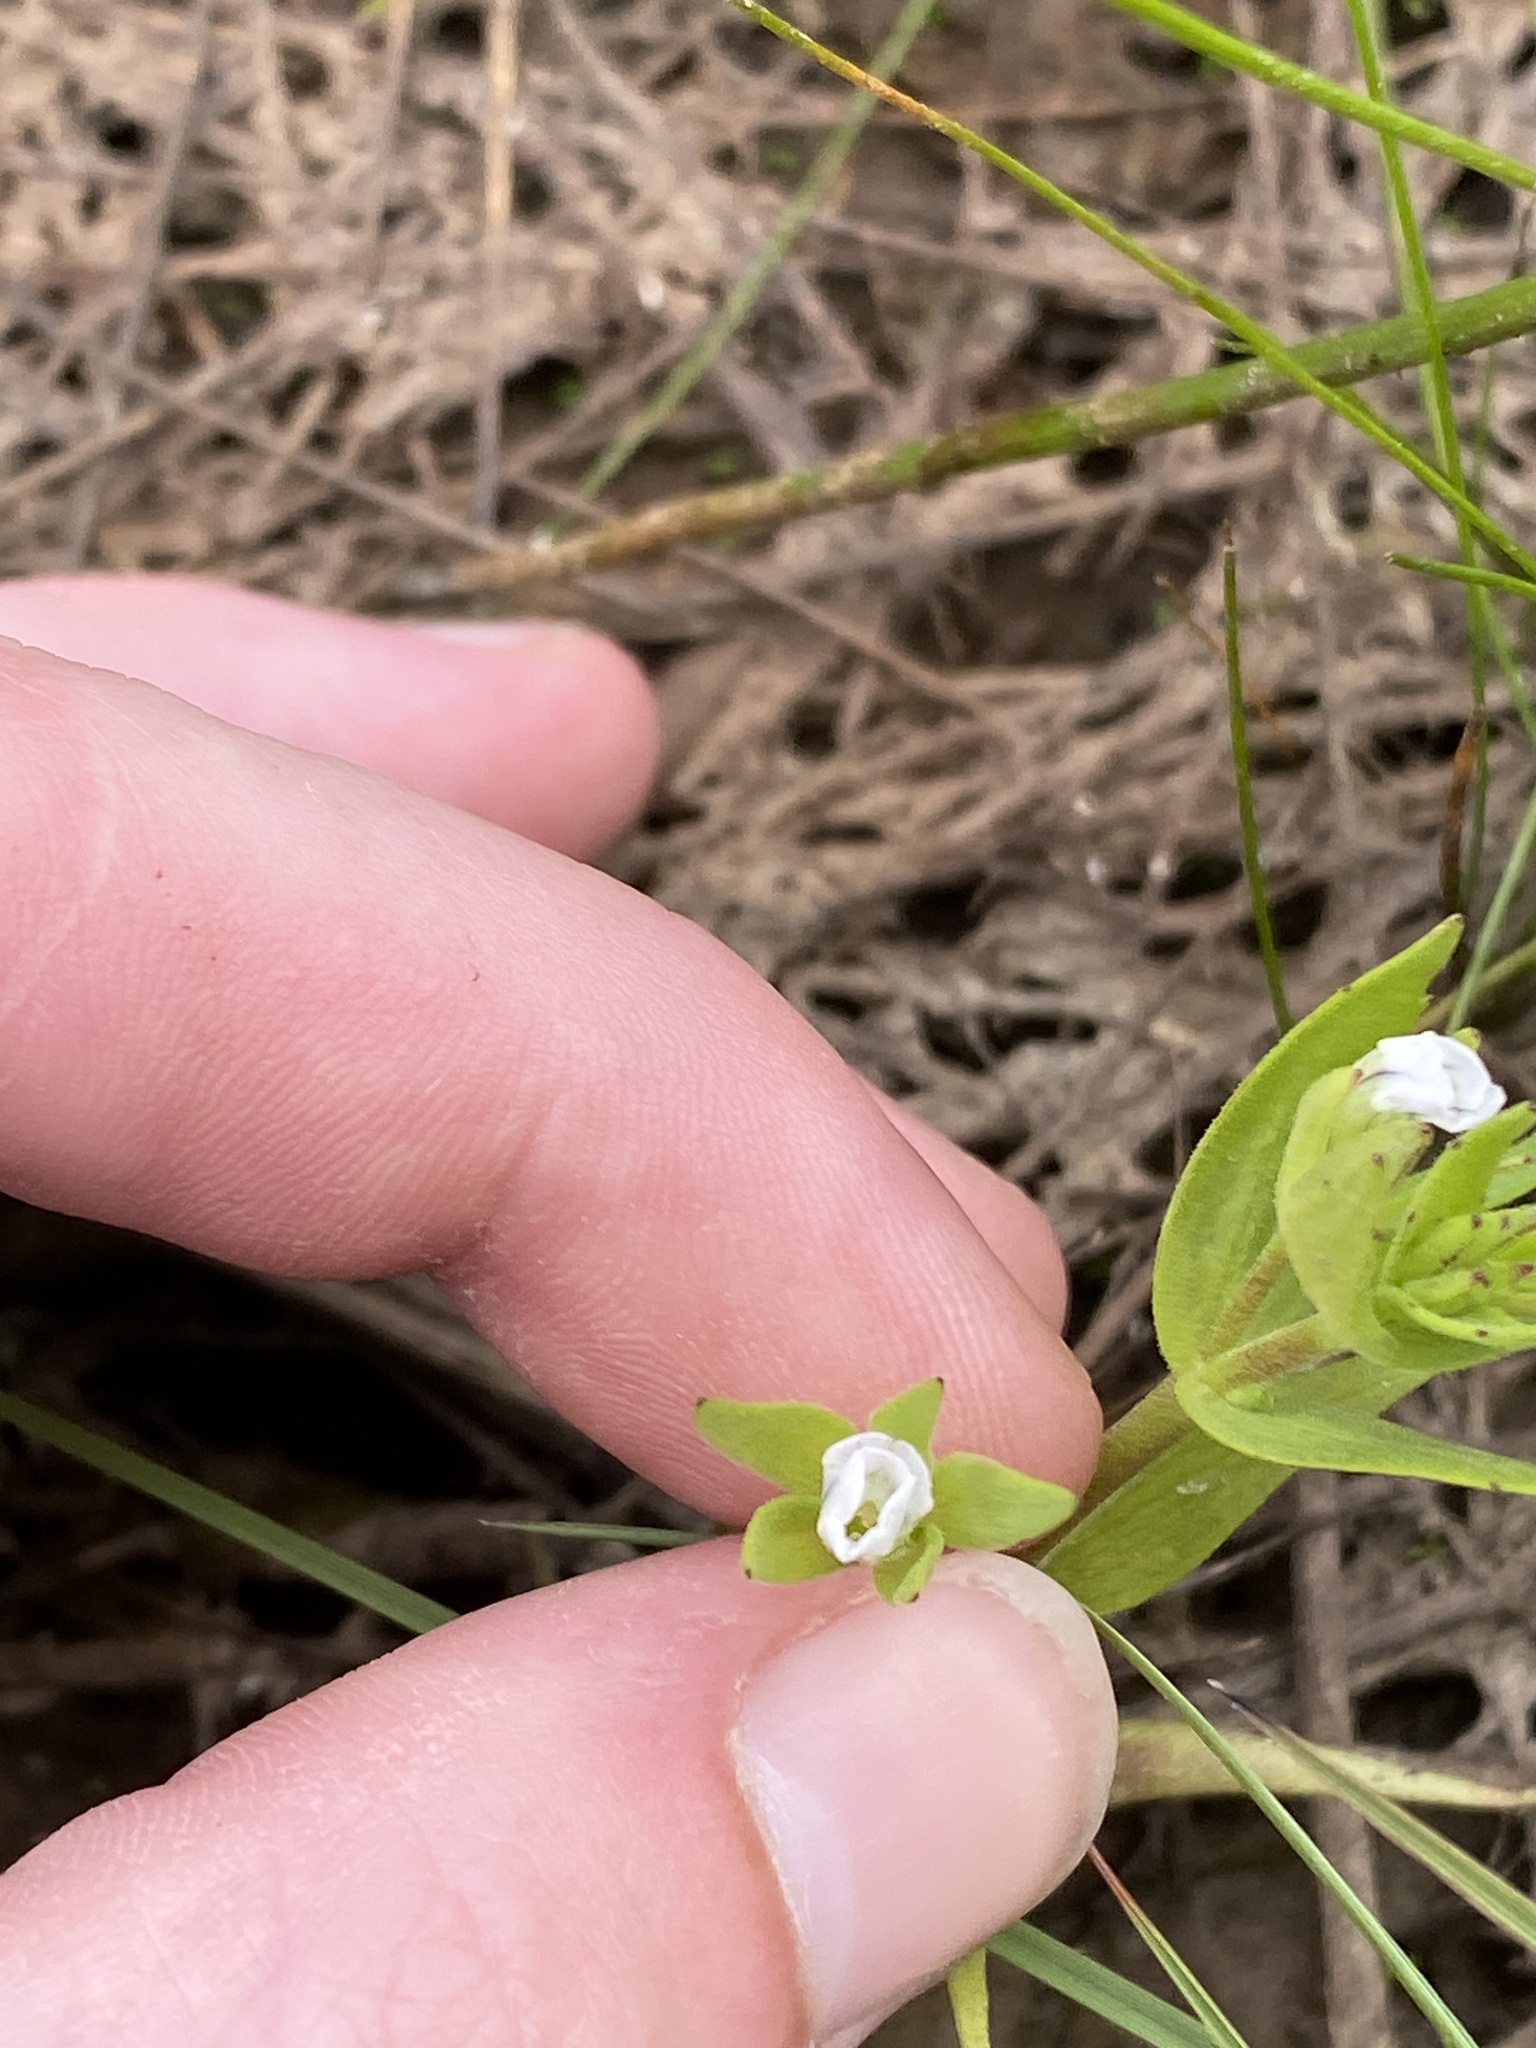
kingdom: Plantae
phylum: Tracheophyta
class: Magnoliopsida
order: Lamiales
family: Plantaginaceae
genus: Gratiola
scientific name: Gratiola ebracteata
